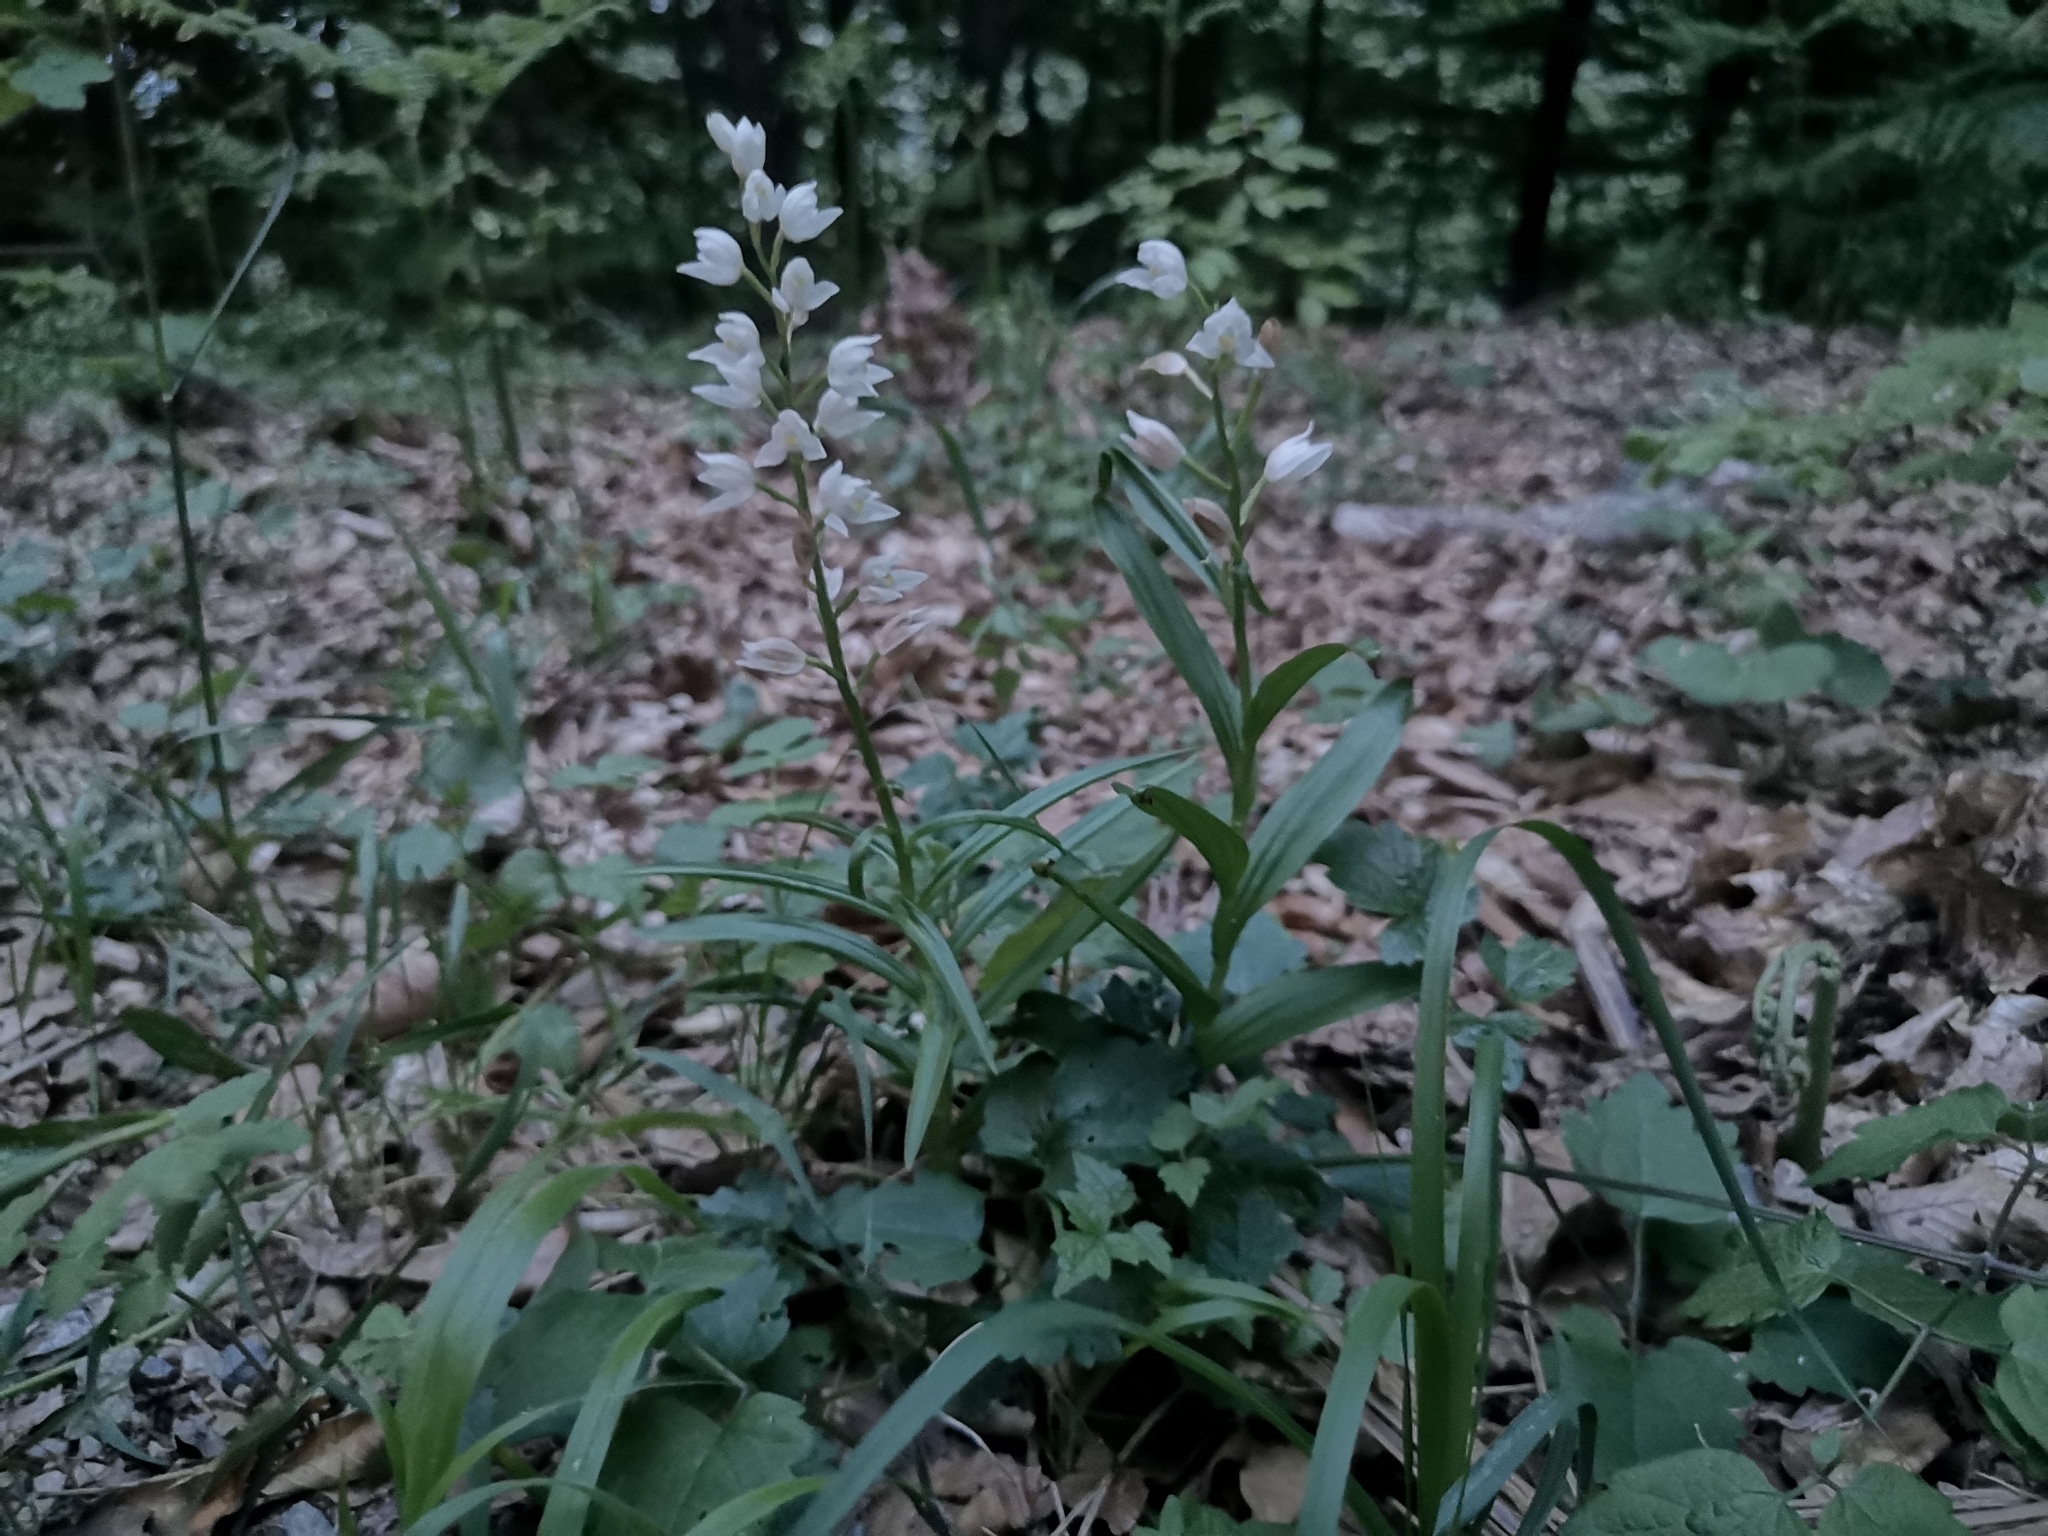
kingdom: Plantae
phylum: Tracheophyta
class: Liliopsida
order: Asparagales
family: Orchidaceae
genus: Cephalanthera
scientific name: Cephalanthera longifolia
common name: Narrow-leaved helleborine
